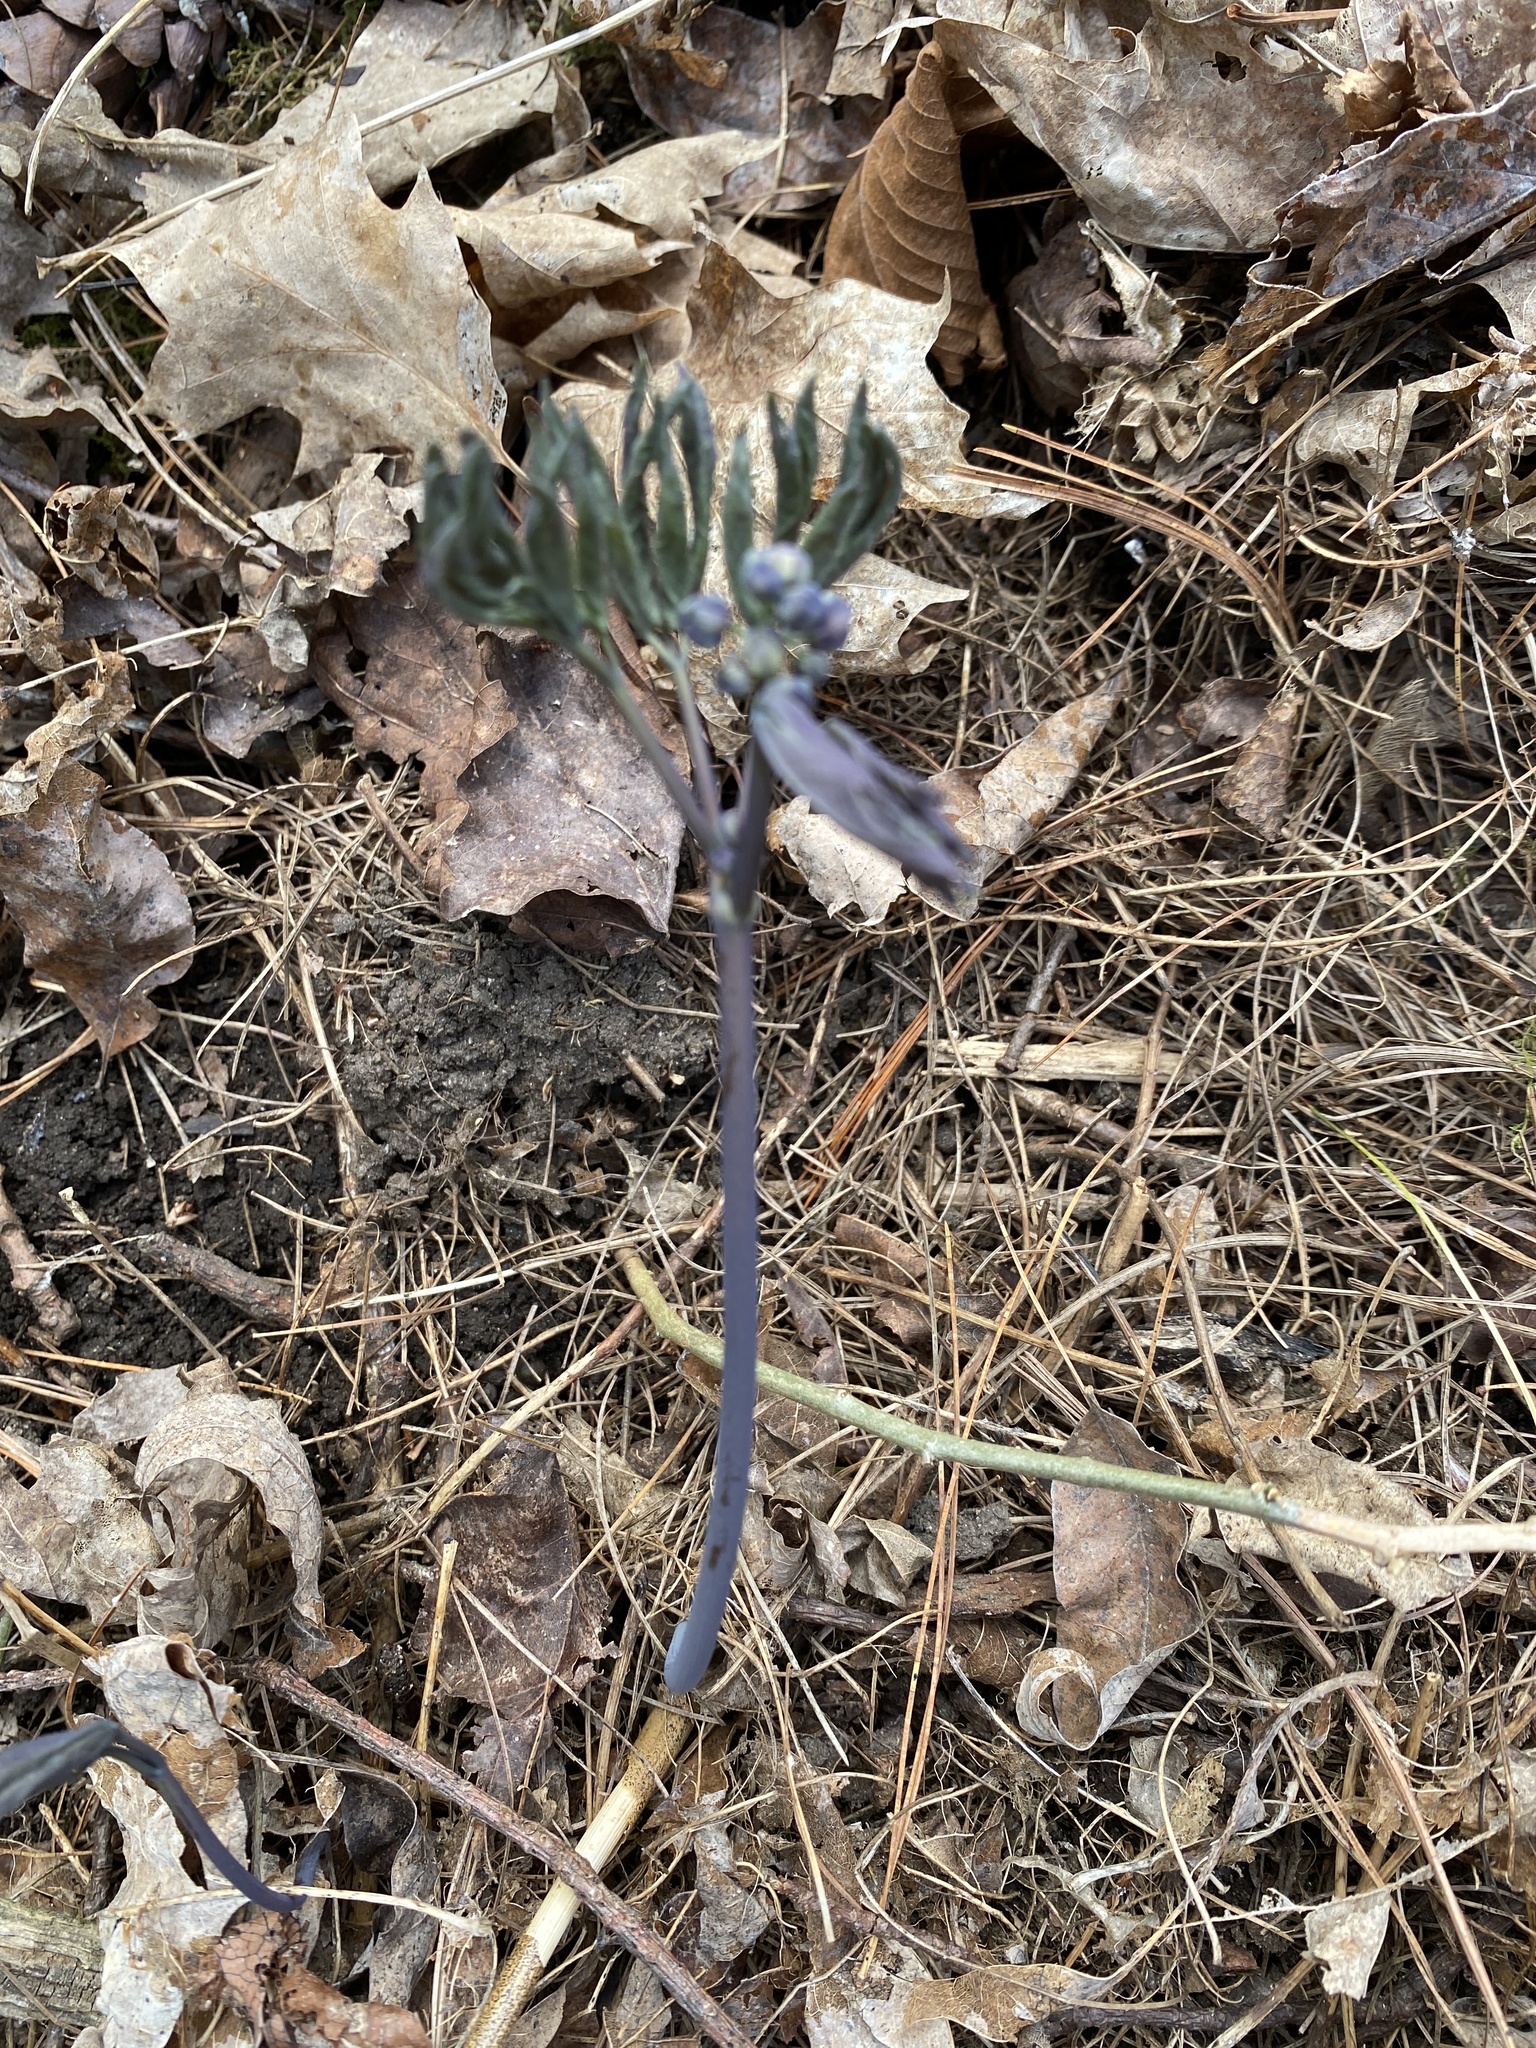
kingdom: Plantae
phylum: Tracheophyta
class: Magnoliopsida
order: Ranunculales
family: Berberidaceae
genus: Caulophyllum
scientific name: Caulophyllum giganteum
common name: Blue cohosh
